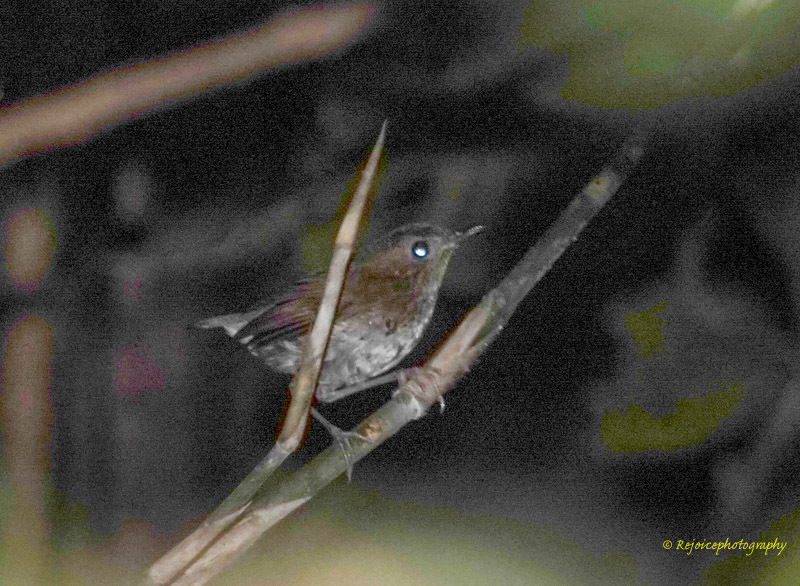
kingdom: Animalia
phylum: Chordata
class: Aves
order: Passeriformes
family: Muscicapidae
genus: Brachypteryx
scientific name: Brachypteryx leucophris
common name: Lesser shortwing
